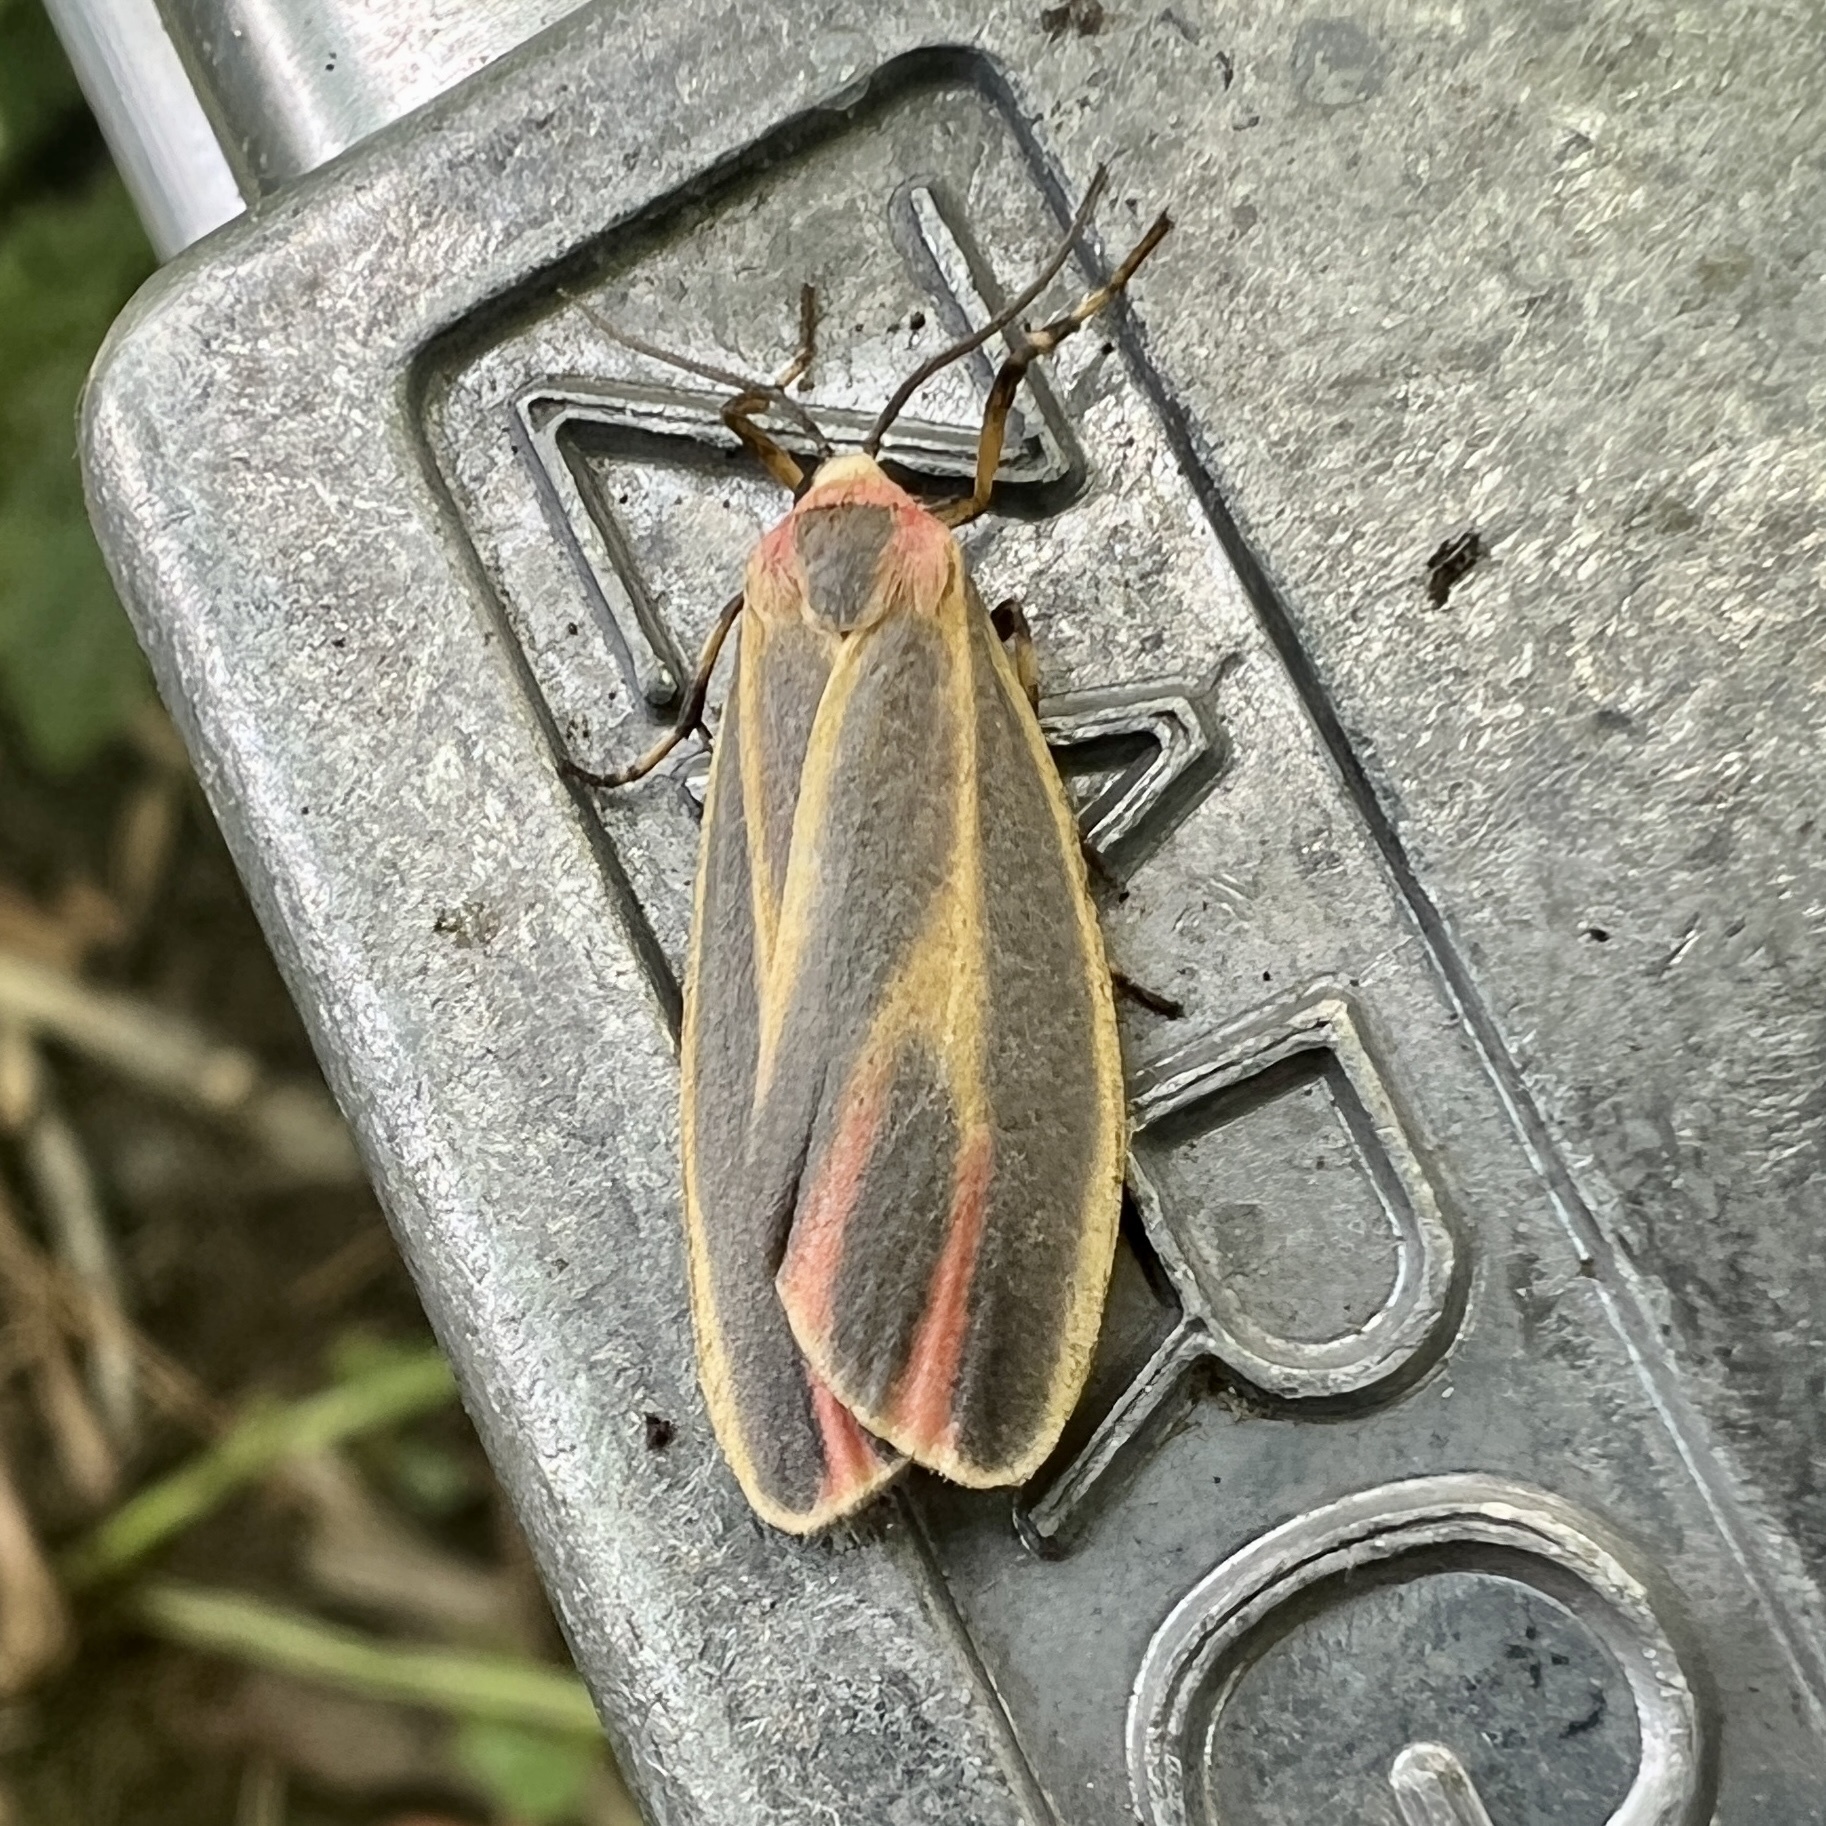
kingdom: Animalia
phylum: Arthropoda
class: Insecta
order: Lepidoptera
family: Erebidae
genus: Hypoprepia
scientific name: Hypoprepia fucosa
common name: Painted lichen moth
